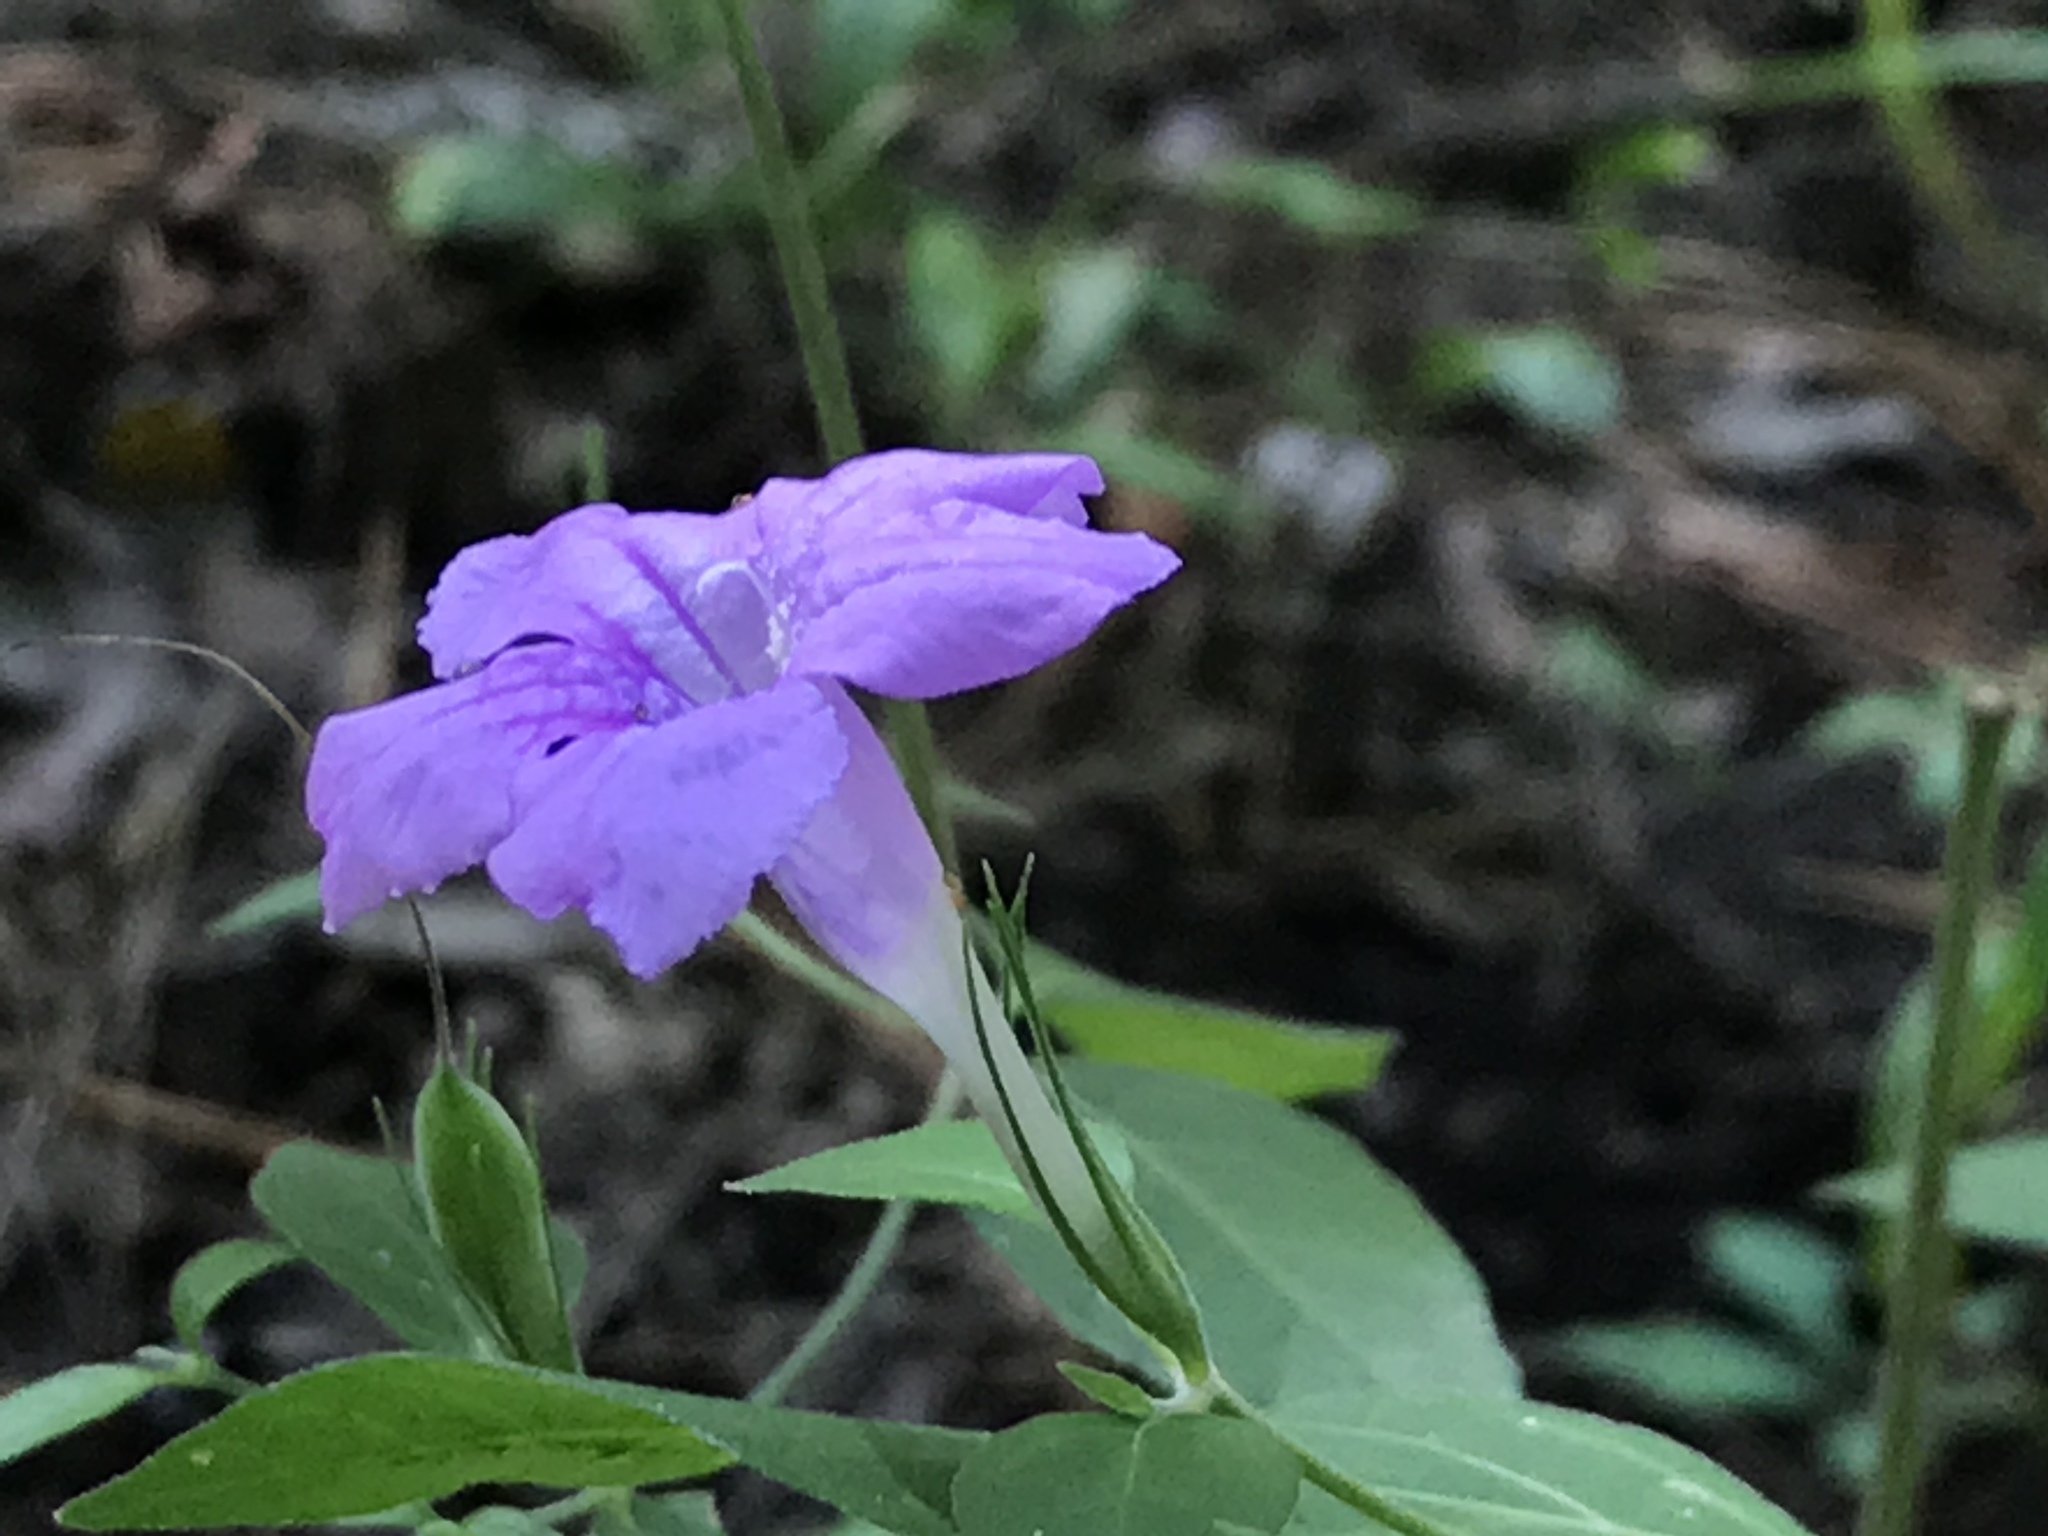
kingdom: Plantae
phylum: Tracheophyta
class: Magnoliopsida
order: Lamiales
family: Acanthaceae
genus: Ruellia
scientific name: Ruellia pedunculata
